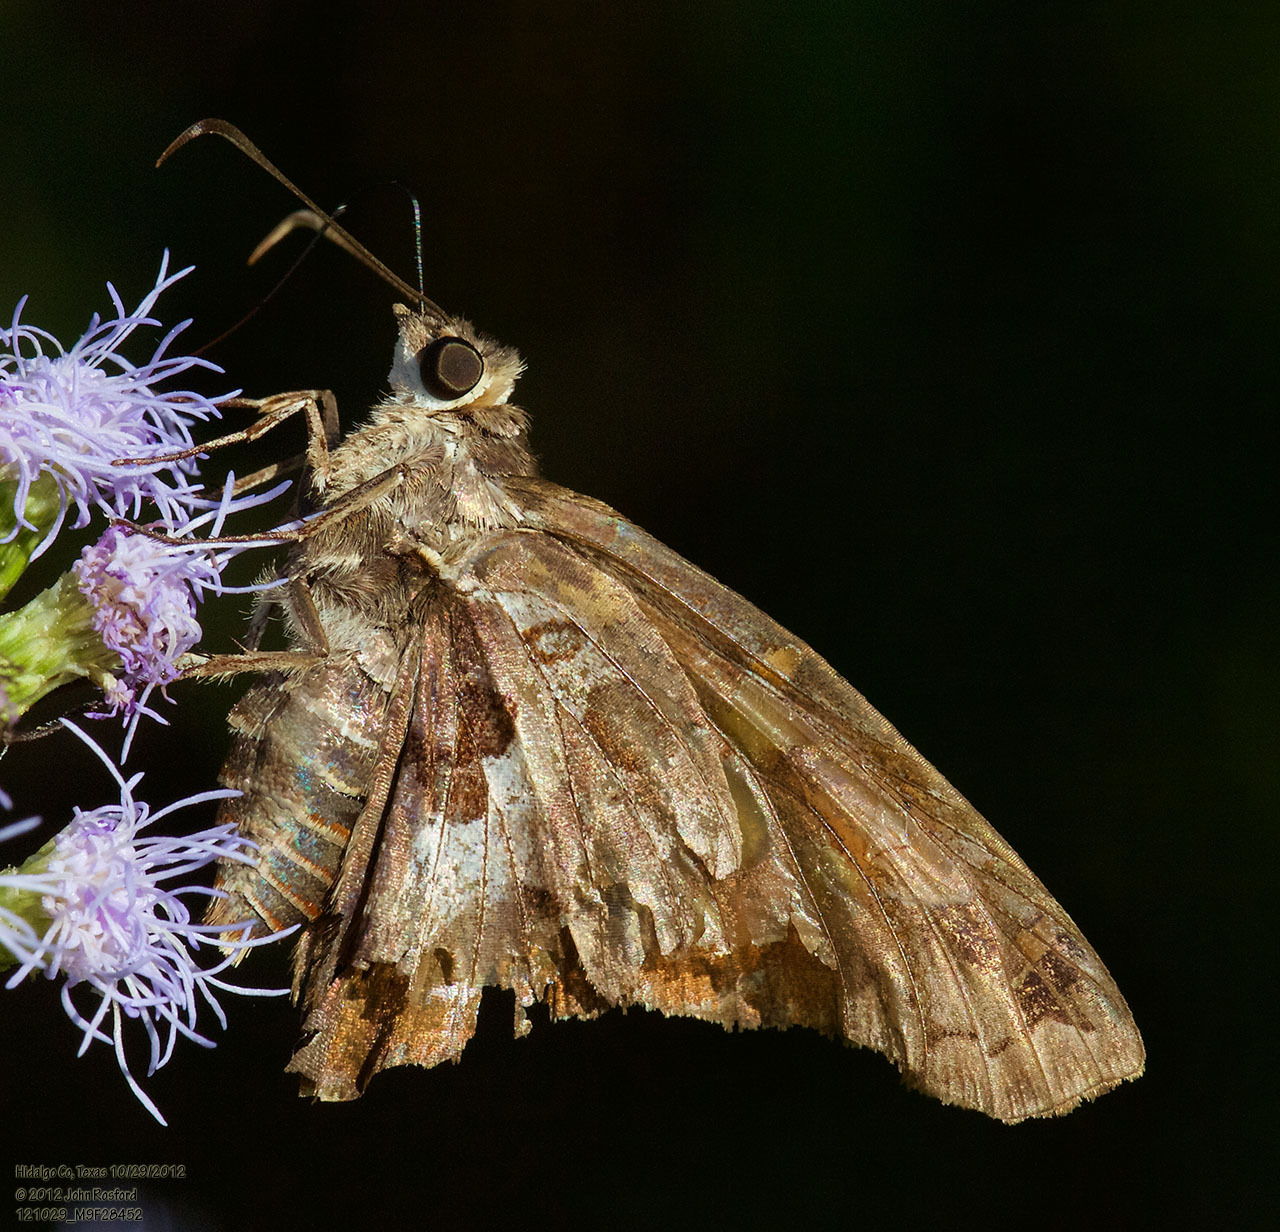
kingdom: Animalia
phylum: Arthropoda
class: Insecta
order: Lepidoptera
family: Hesperiidae
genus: Chioides
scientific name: Chioides zilpa
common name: Zilpa longtail
